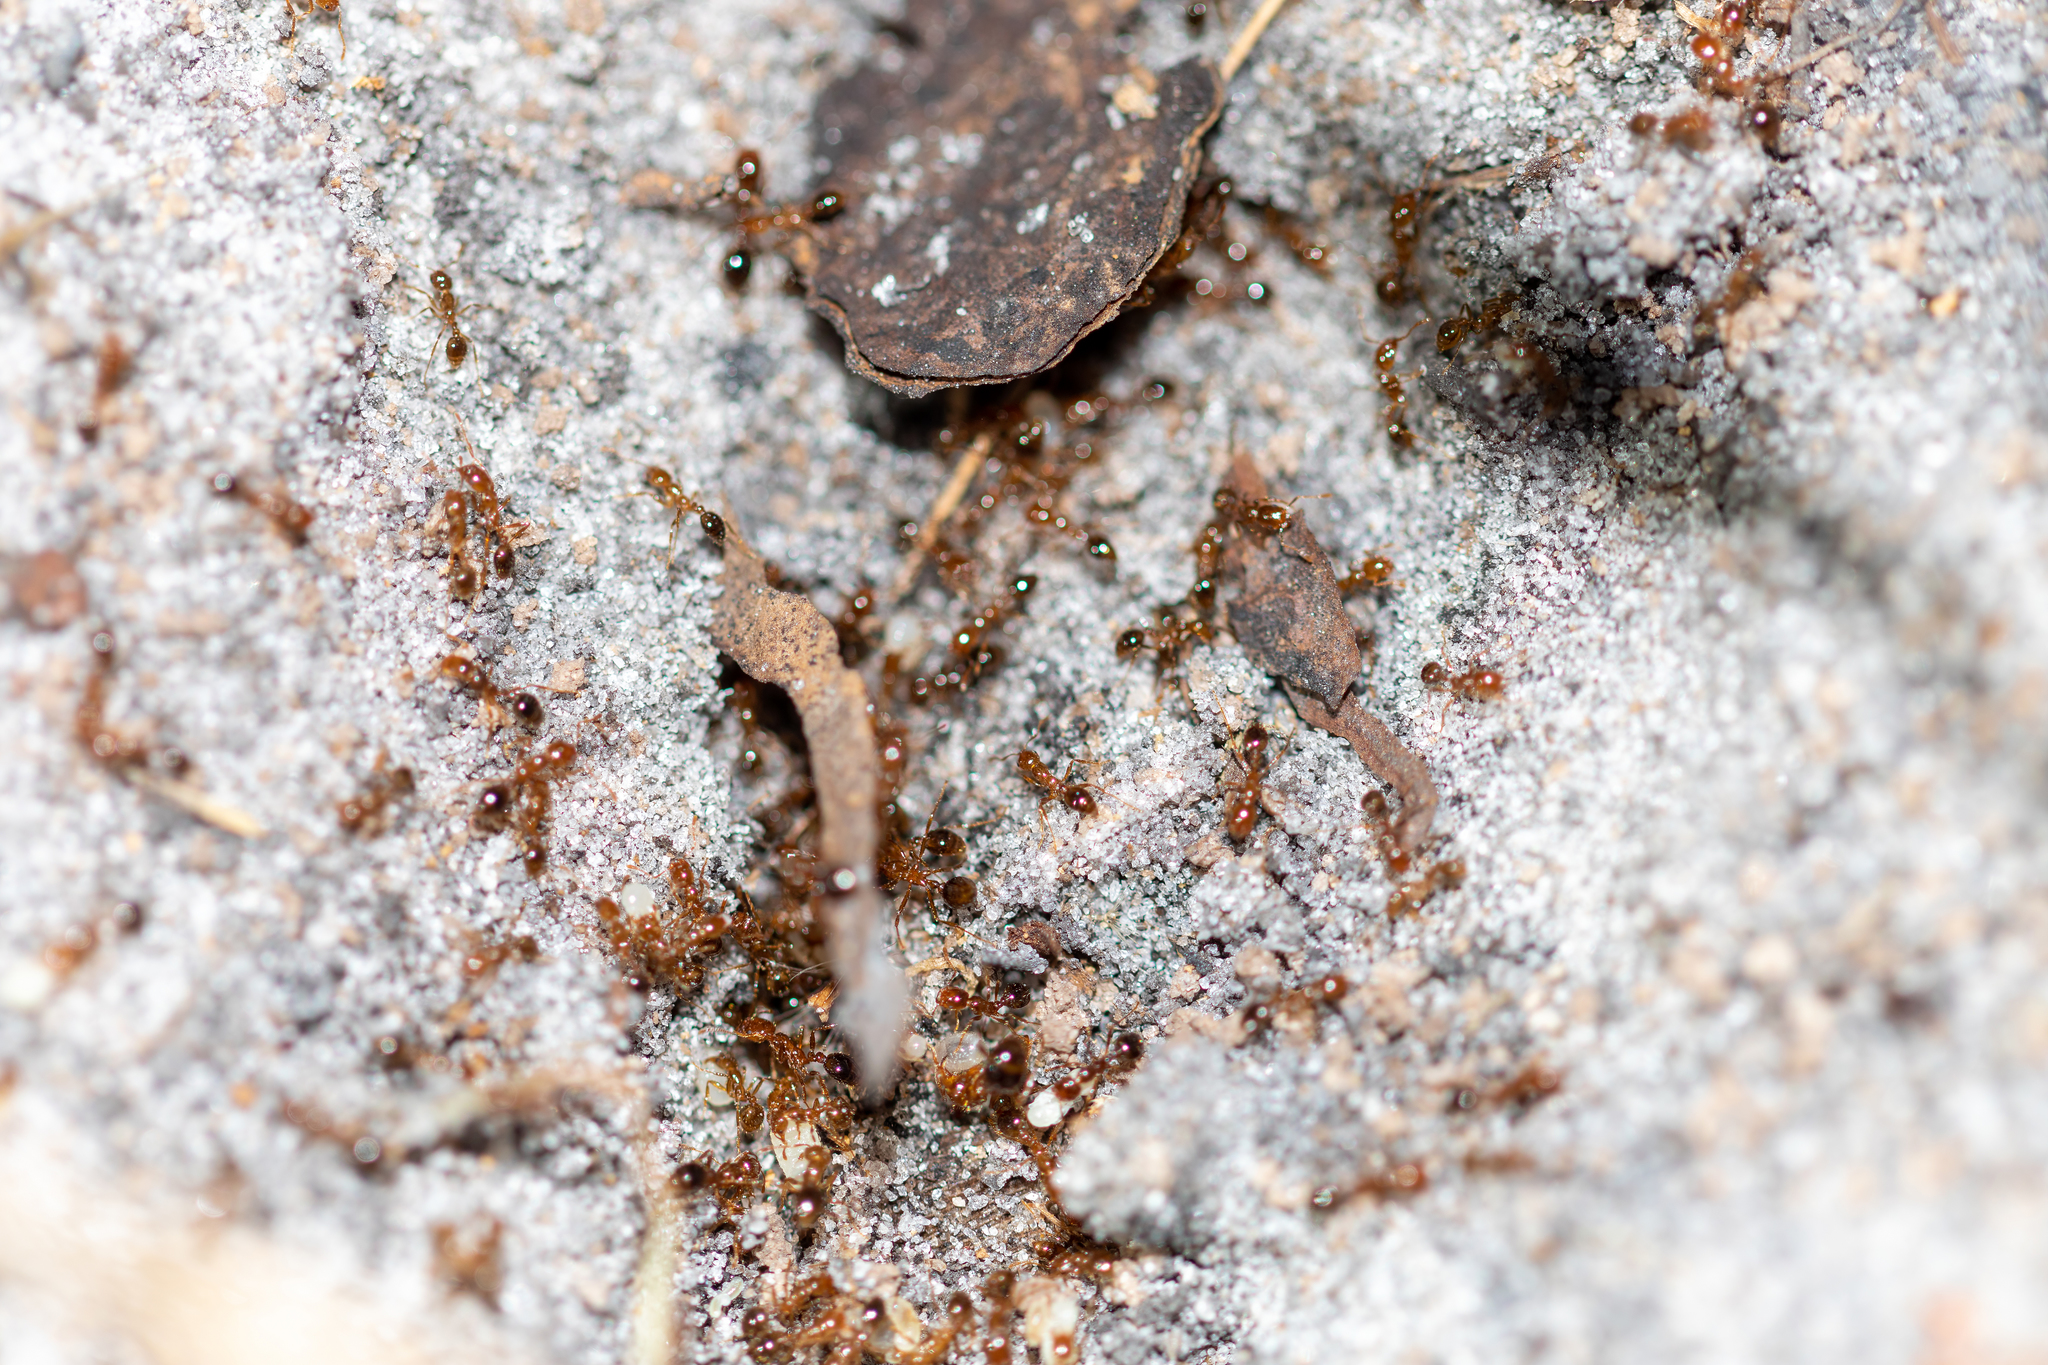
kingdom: Animalia
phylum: Arthropoda
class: Insecta
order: Hymenoptera
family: Formicidae
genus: Solenopsis
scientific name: Solenopsis invicta
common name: Red imported fire ant
